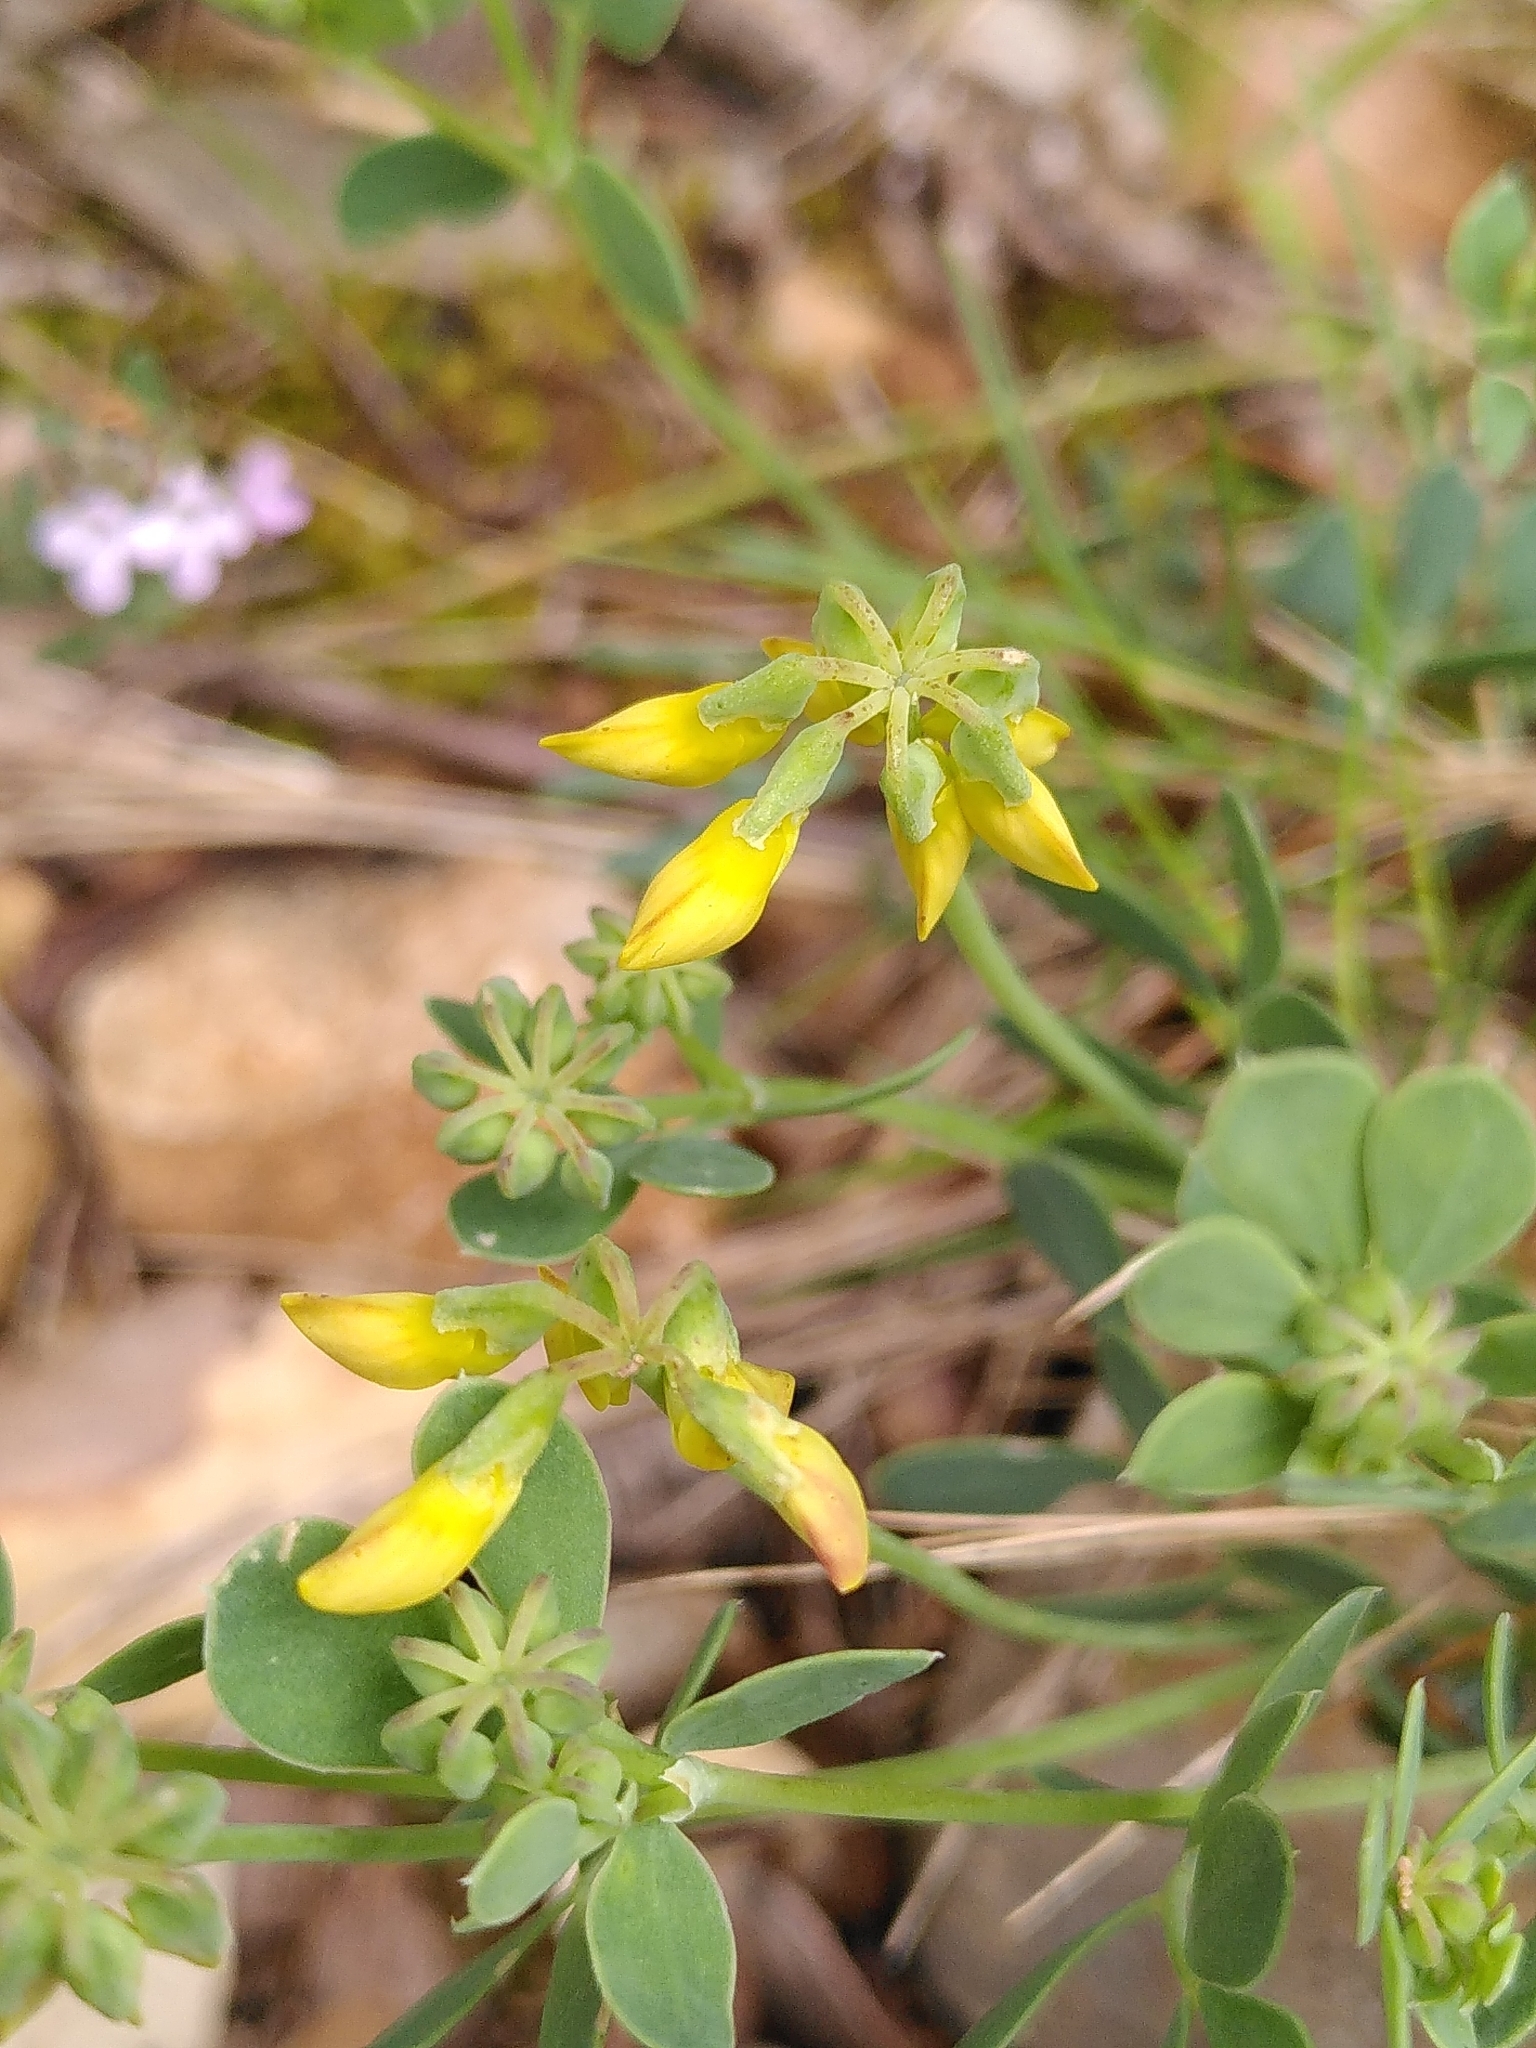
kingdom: Plantae
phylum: Tracheophyta
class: Magnoliopsida
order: Fabales
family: Fabaceae
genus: Coronilla
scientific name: Coronilla minima
